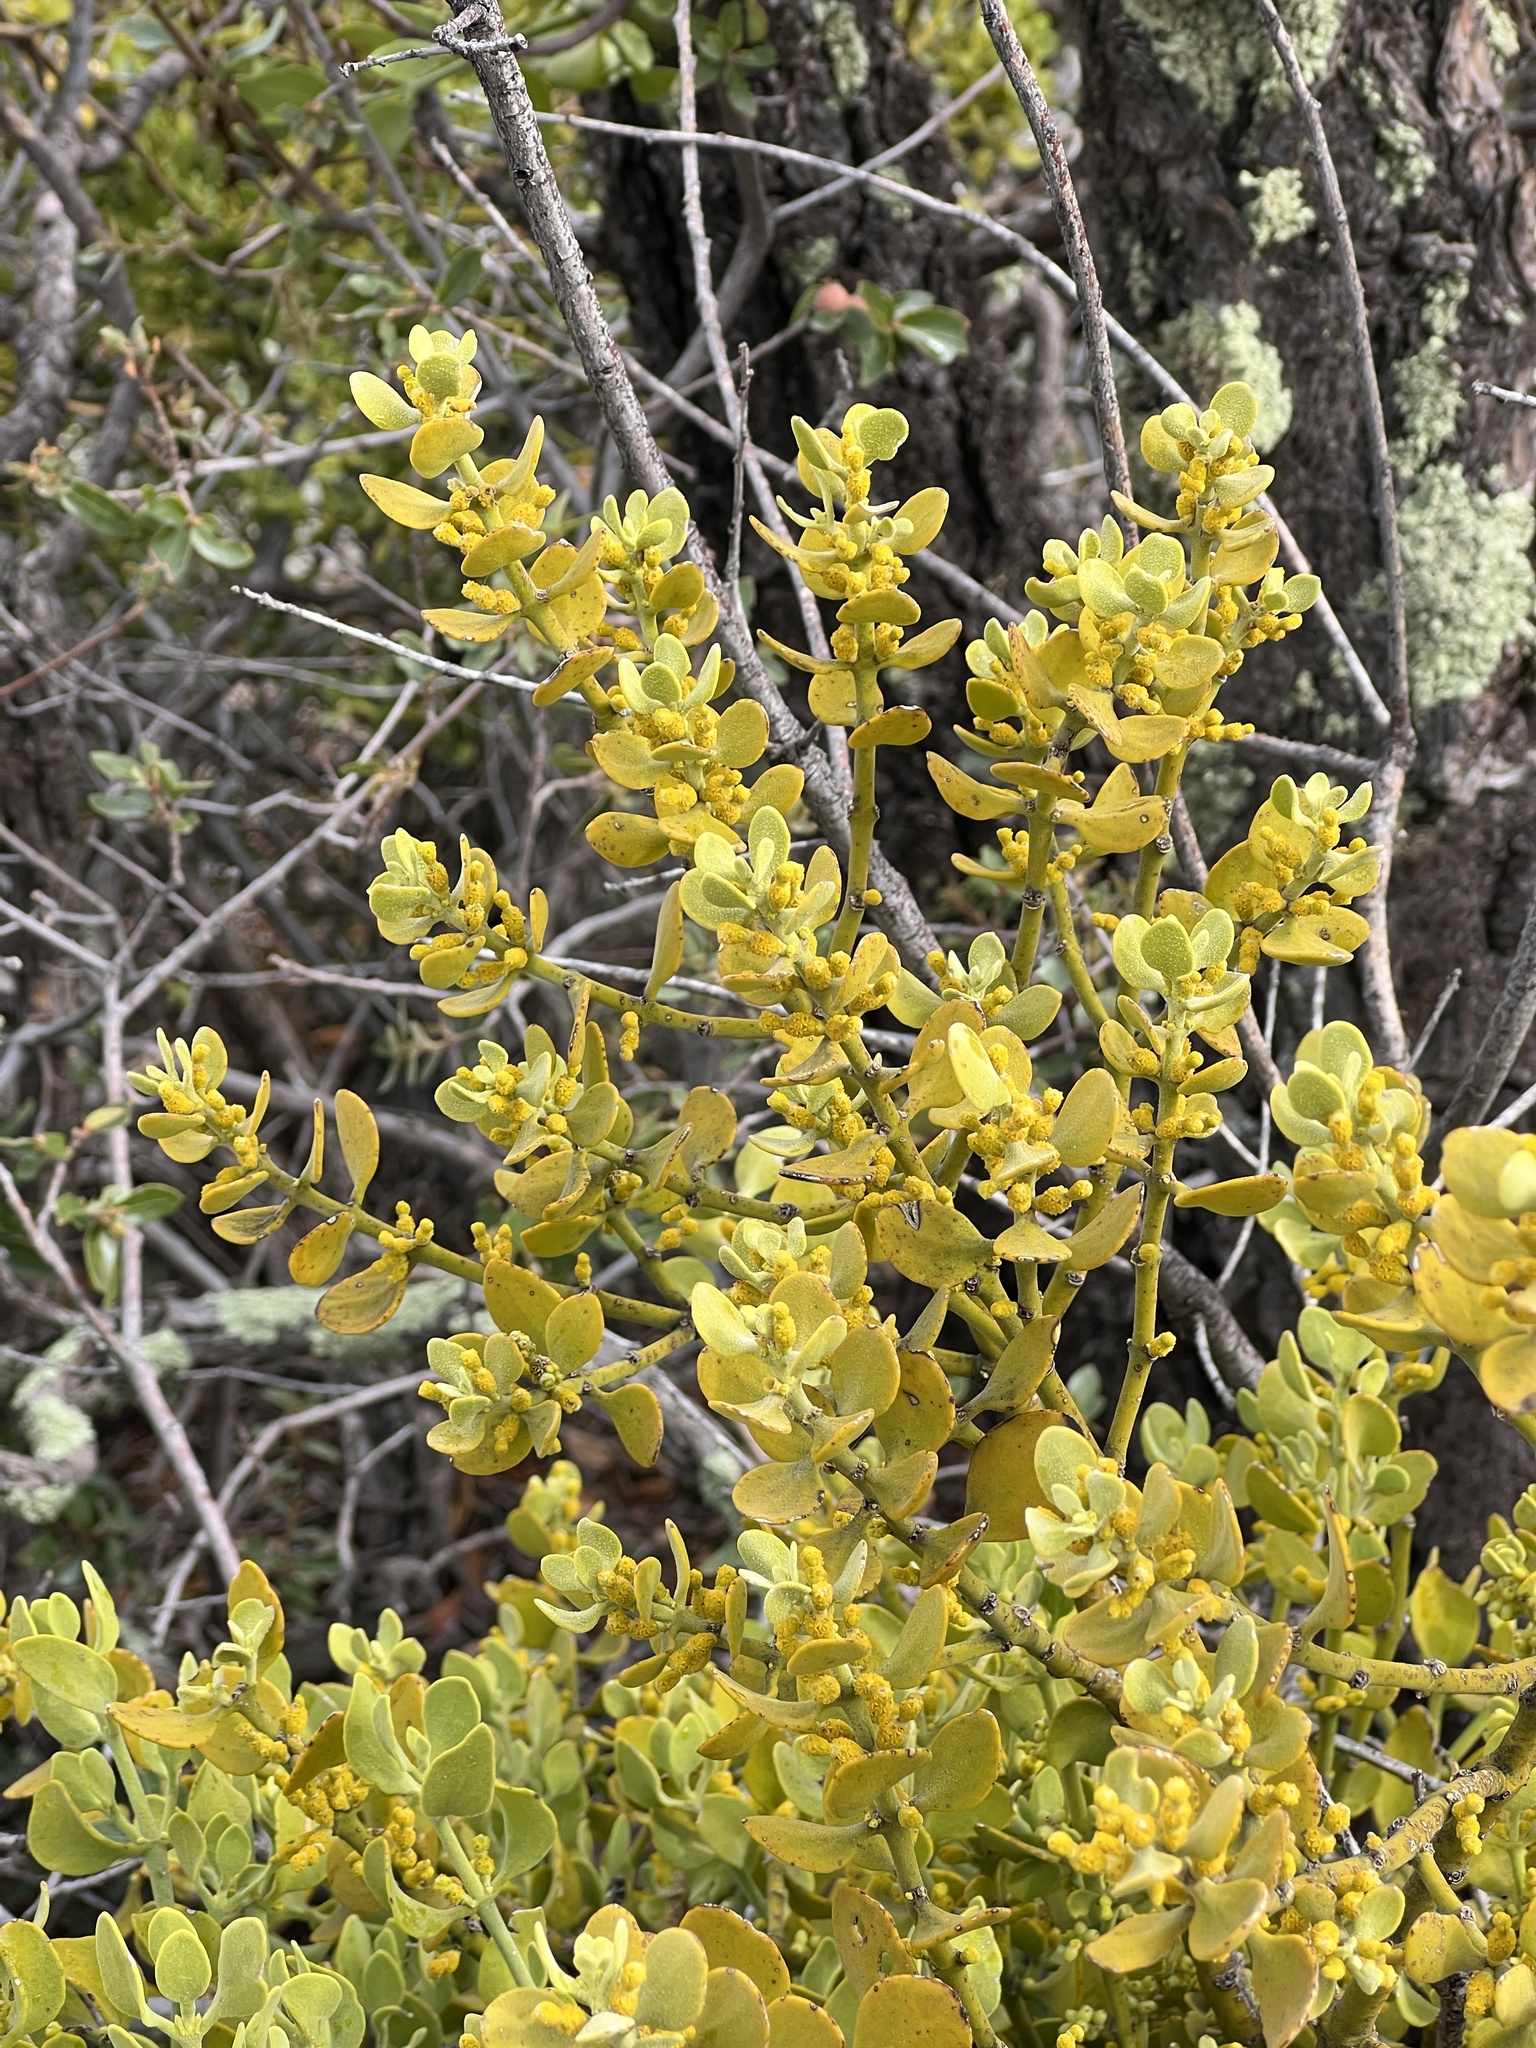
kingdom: Plantae
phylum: Tracheophyta
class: Magnoliopsida
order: Santalales
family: Viscaceae
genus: Phoradendron
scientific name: Phoradendron coryae
